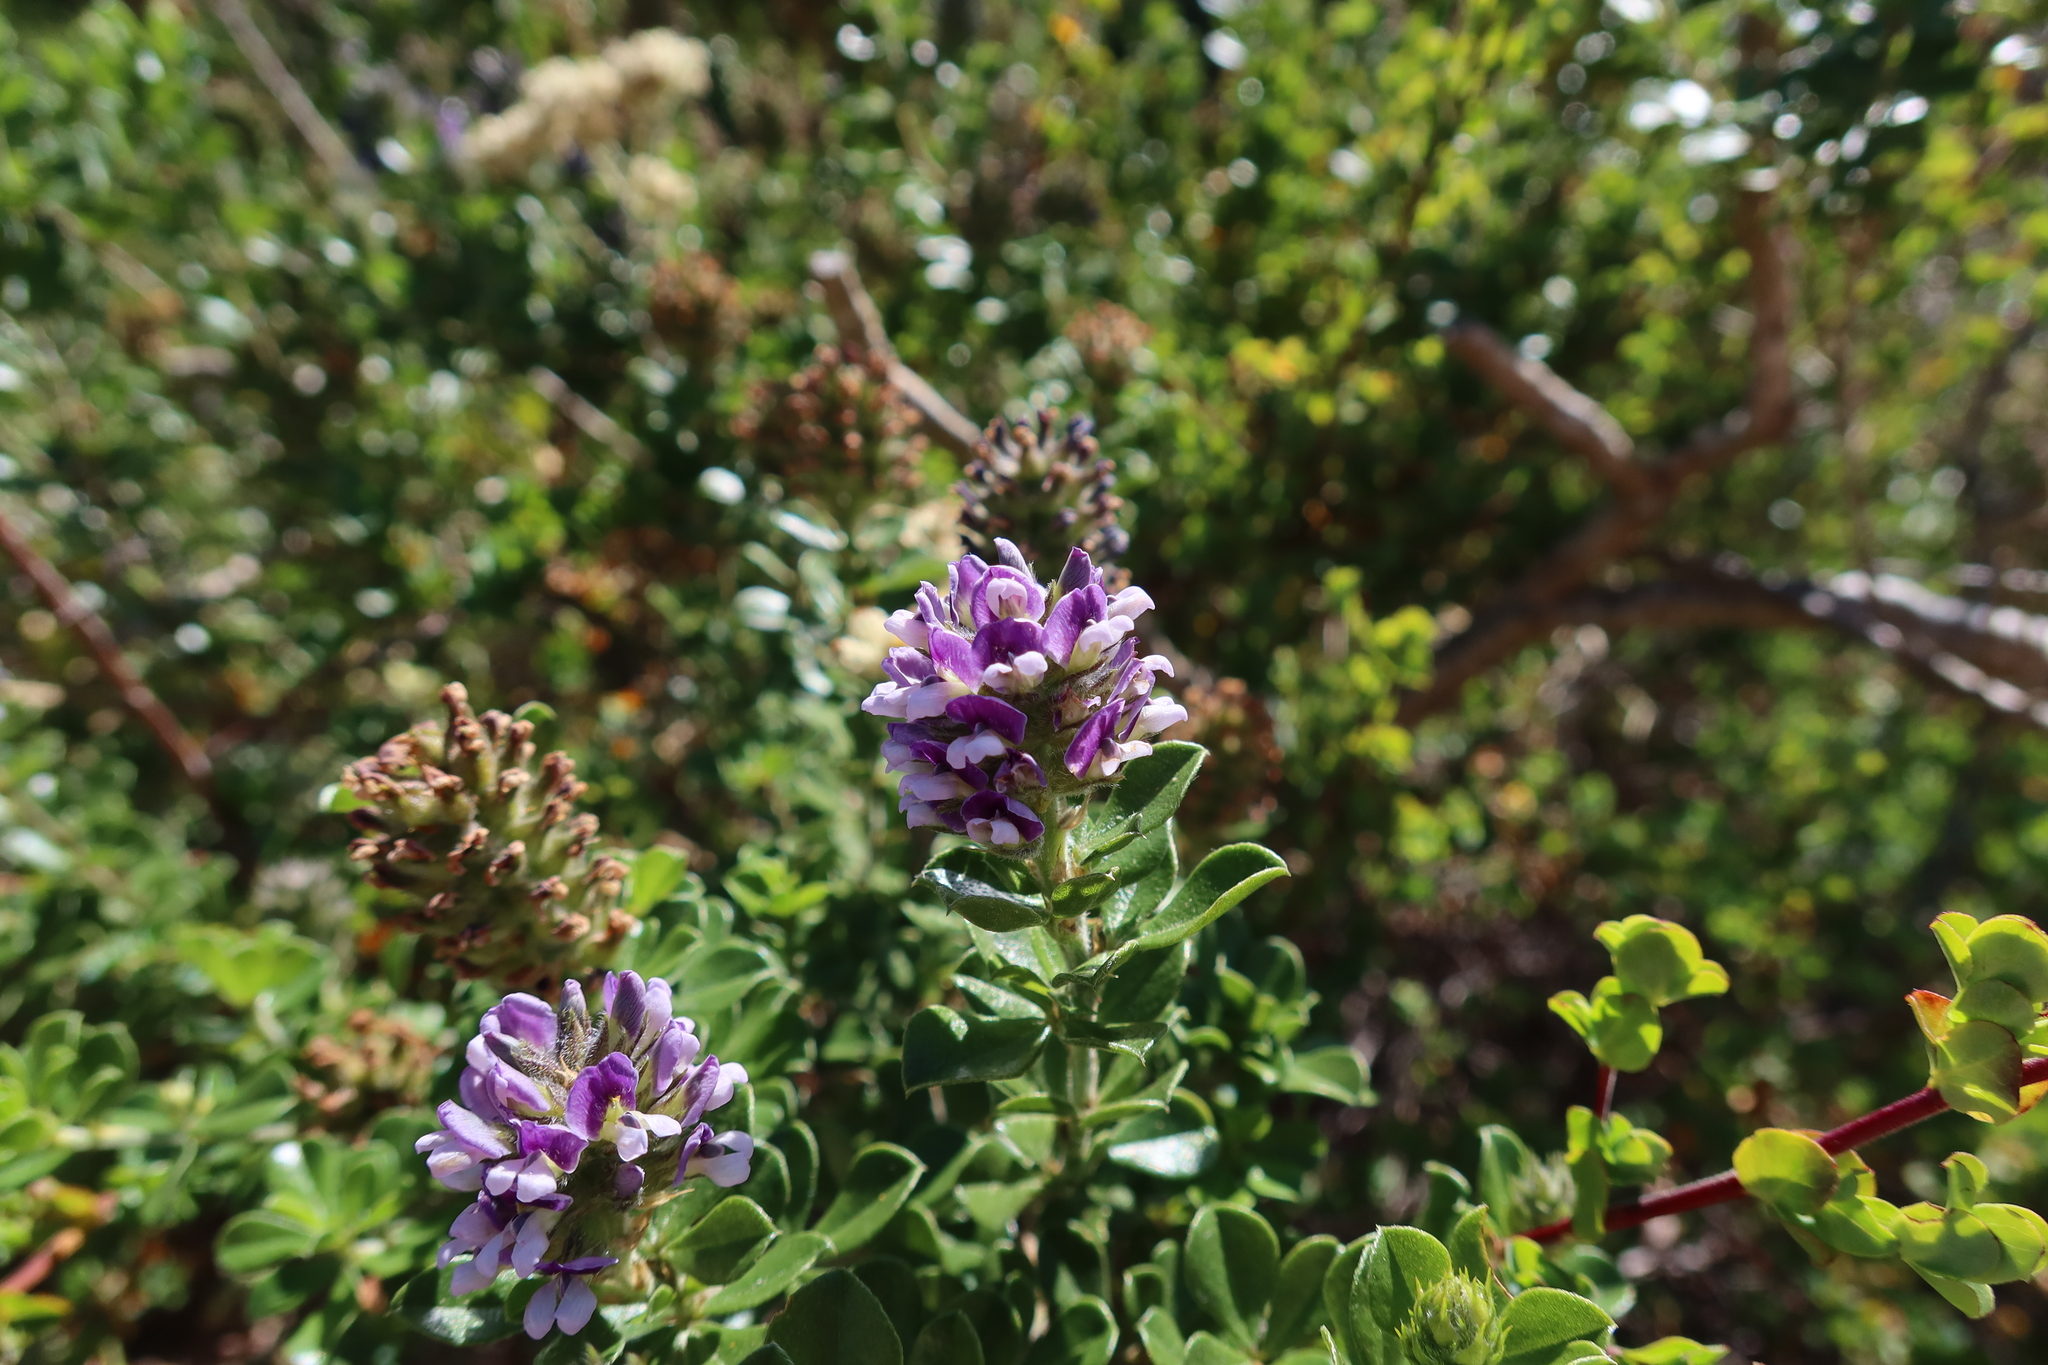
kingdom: Plantae
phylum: Tracheophyta
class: Magnoliopsida
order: Fabales
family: Fabaceae
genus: Psoralea
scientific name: Psoralea bracteolata
